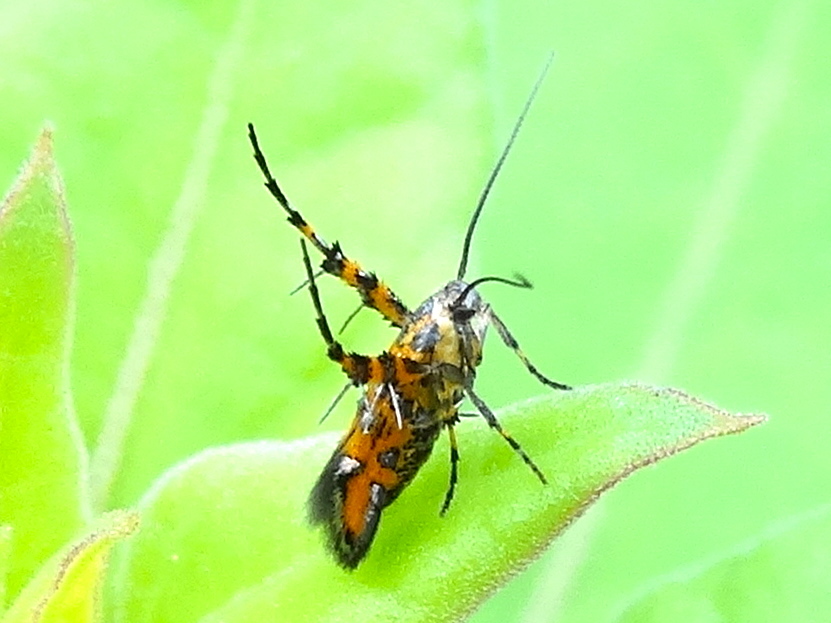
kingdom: Animalia
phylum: Arthropoda
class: Insecta
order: Lepidoptera
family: Heliodinidae
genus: Heliodines
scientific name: Heliodines
